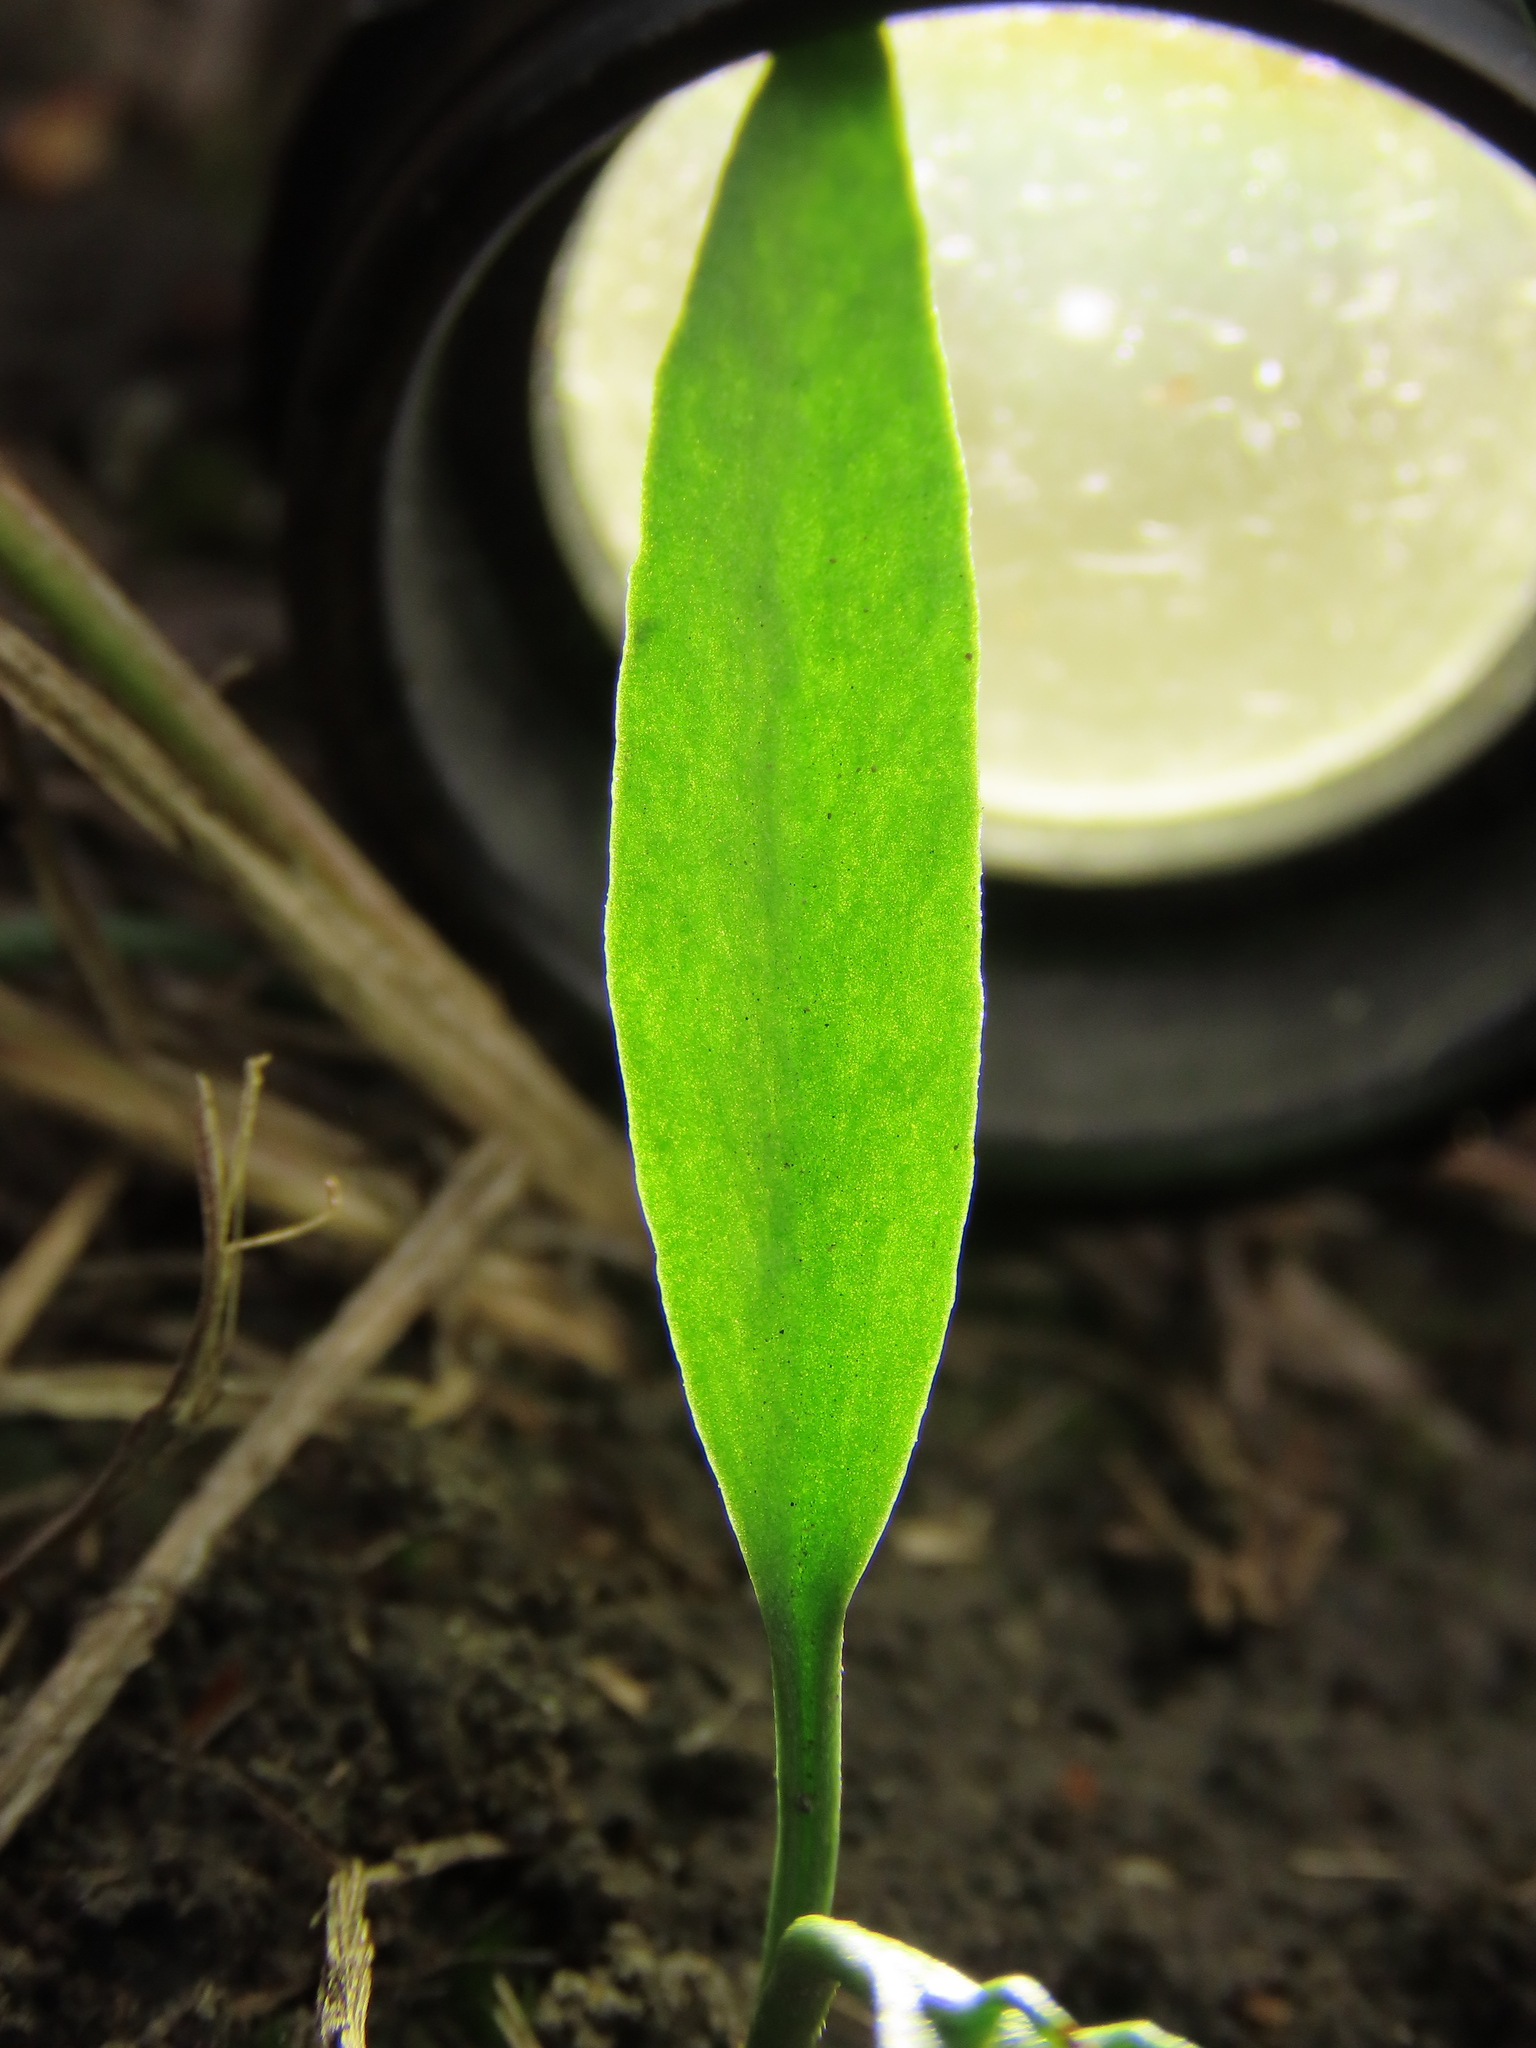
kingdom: Plantae
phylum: Tracheophyta
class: Polypodiopsida
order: Ophioglossales
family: Ophioglossaceae
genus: Ophioglossum
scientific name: Ophioglossum thermale
